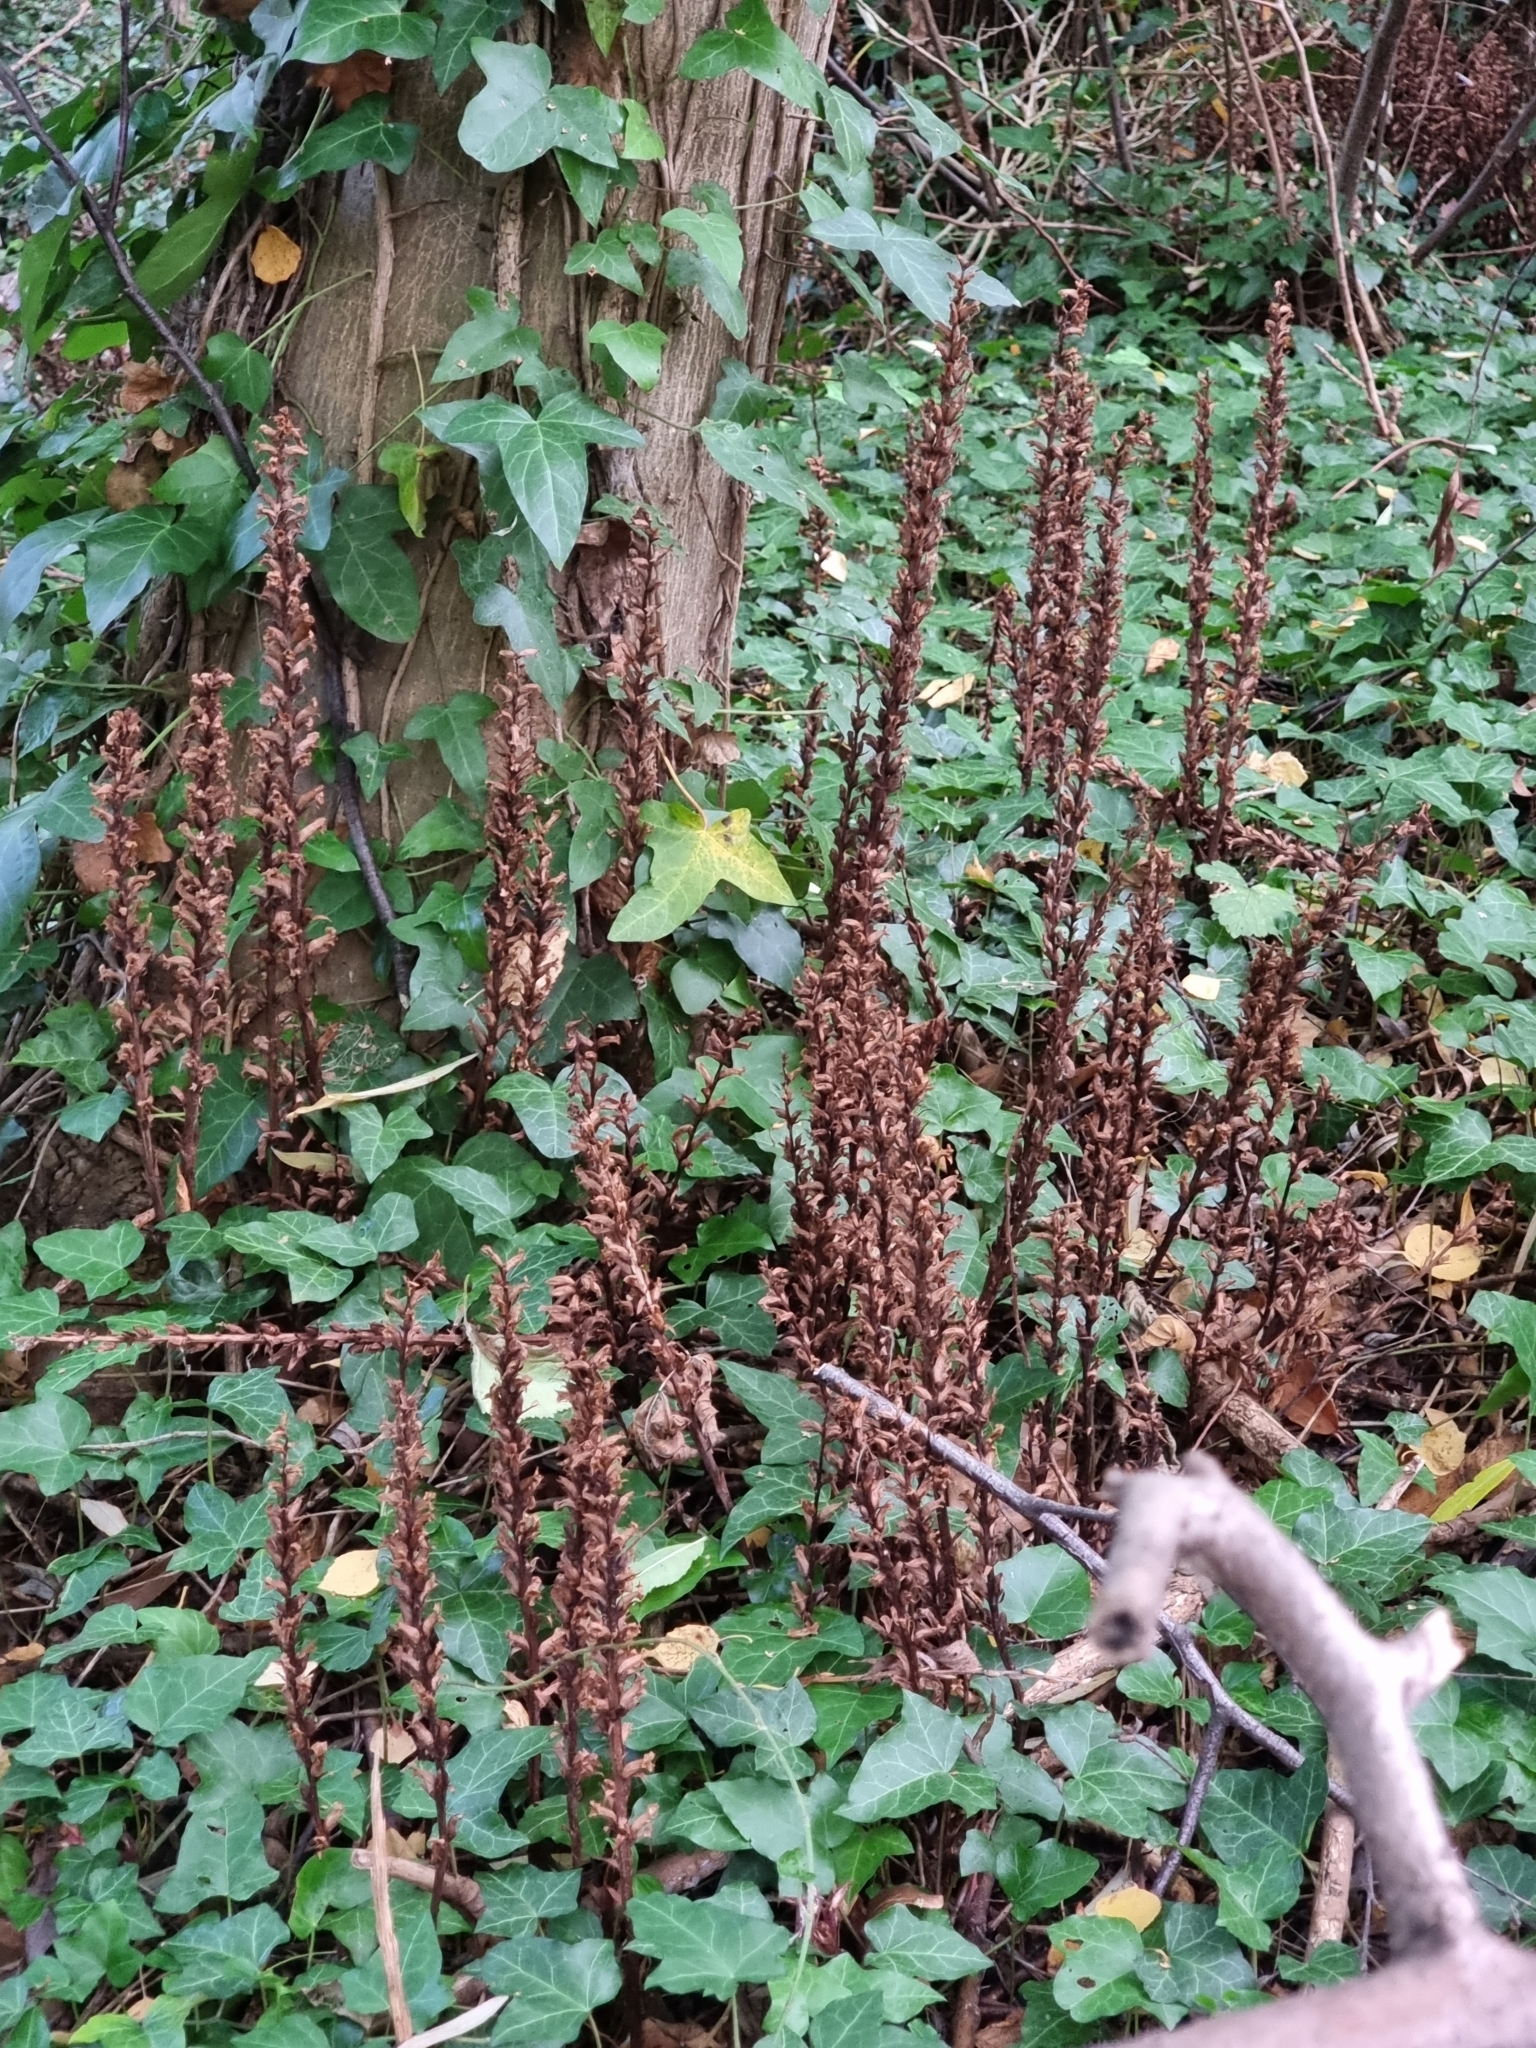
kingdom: Plantae
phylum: Tracheophyta
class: Magnoliopsida
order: Lamiales
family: Orobanchaceae
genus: Orobanche
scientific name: Orobanche hederae
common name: Ivy broomrape
